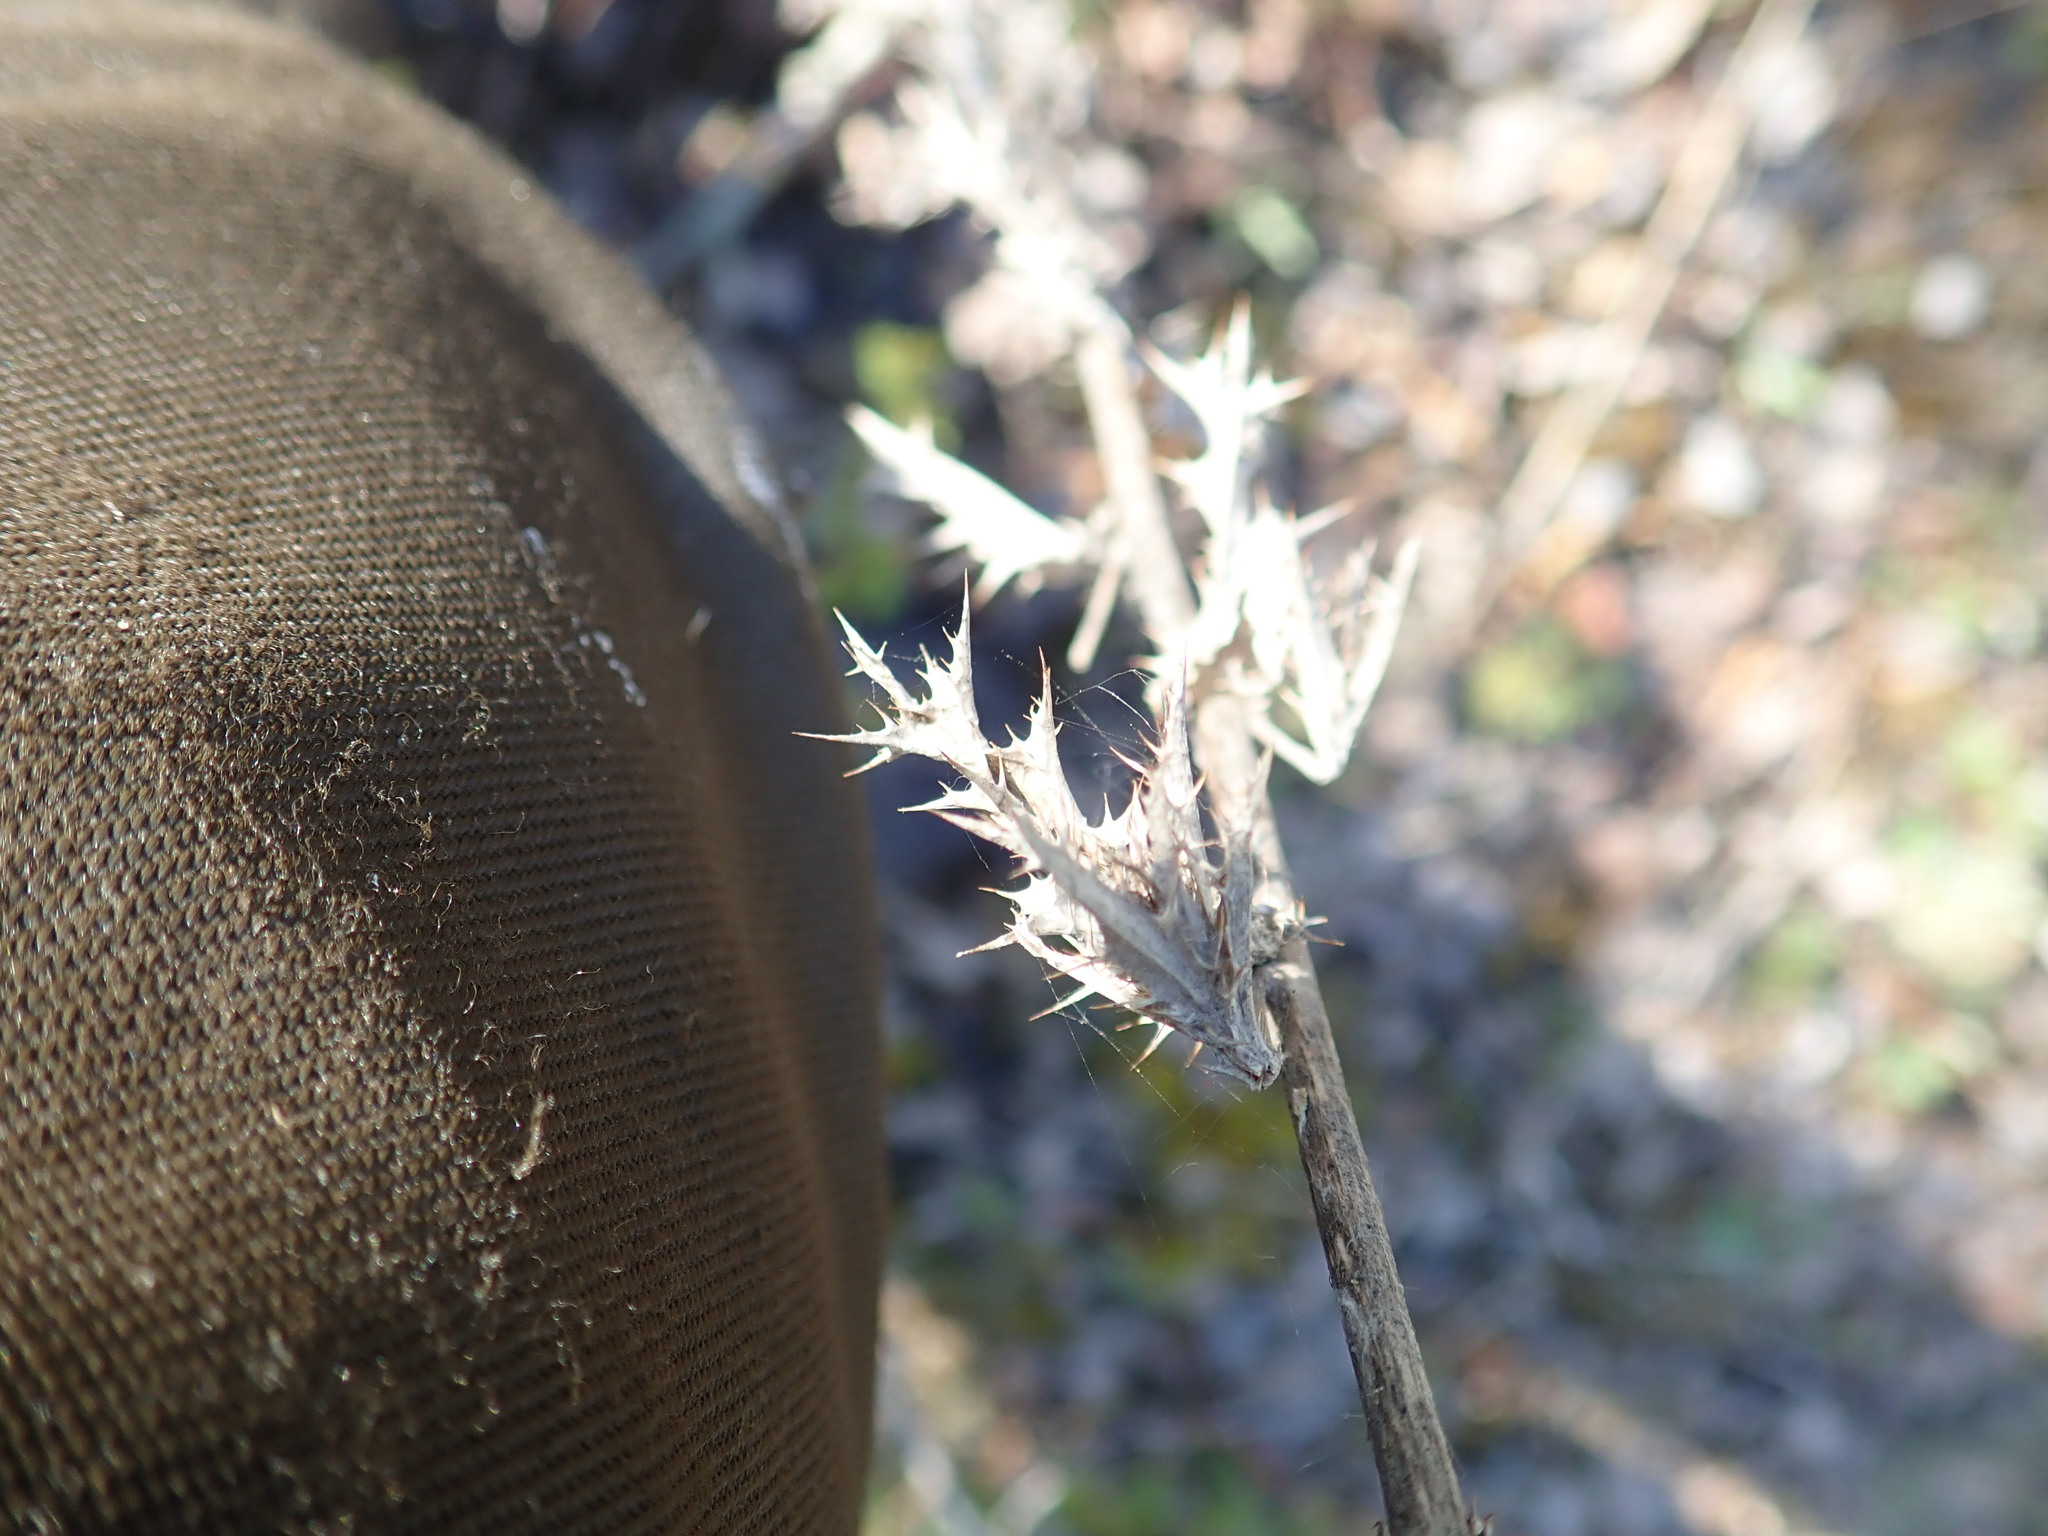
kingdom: Plantae
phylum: Tracheophyta
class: Magnoliopsida
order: Asterales
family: Asteraceae
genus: Carlina
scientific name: Carlina vulgaris
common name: Carline thistle
